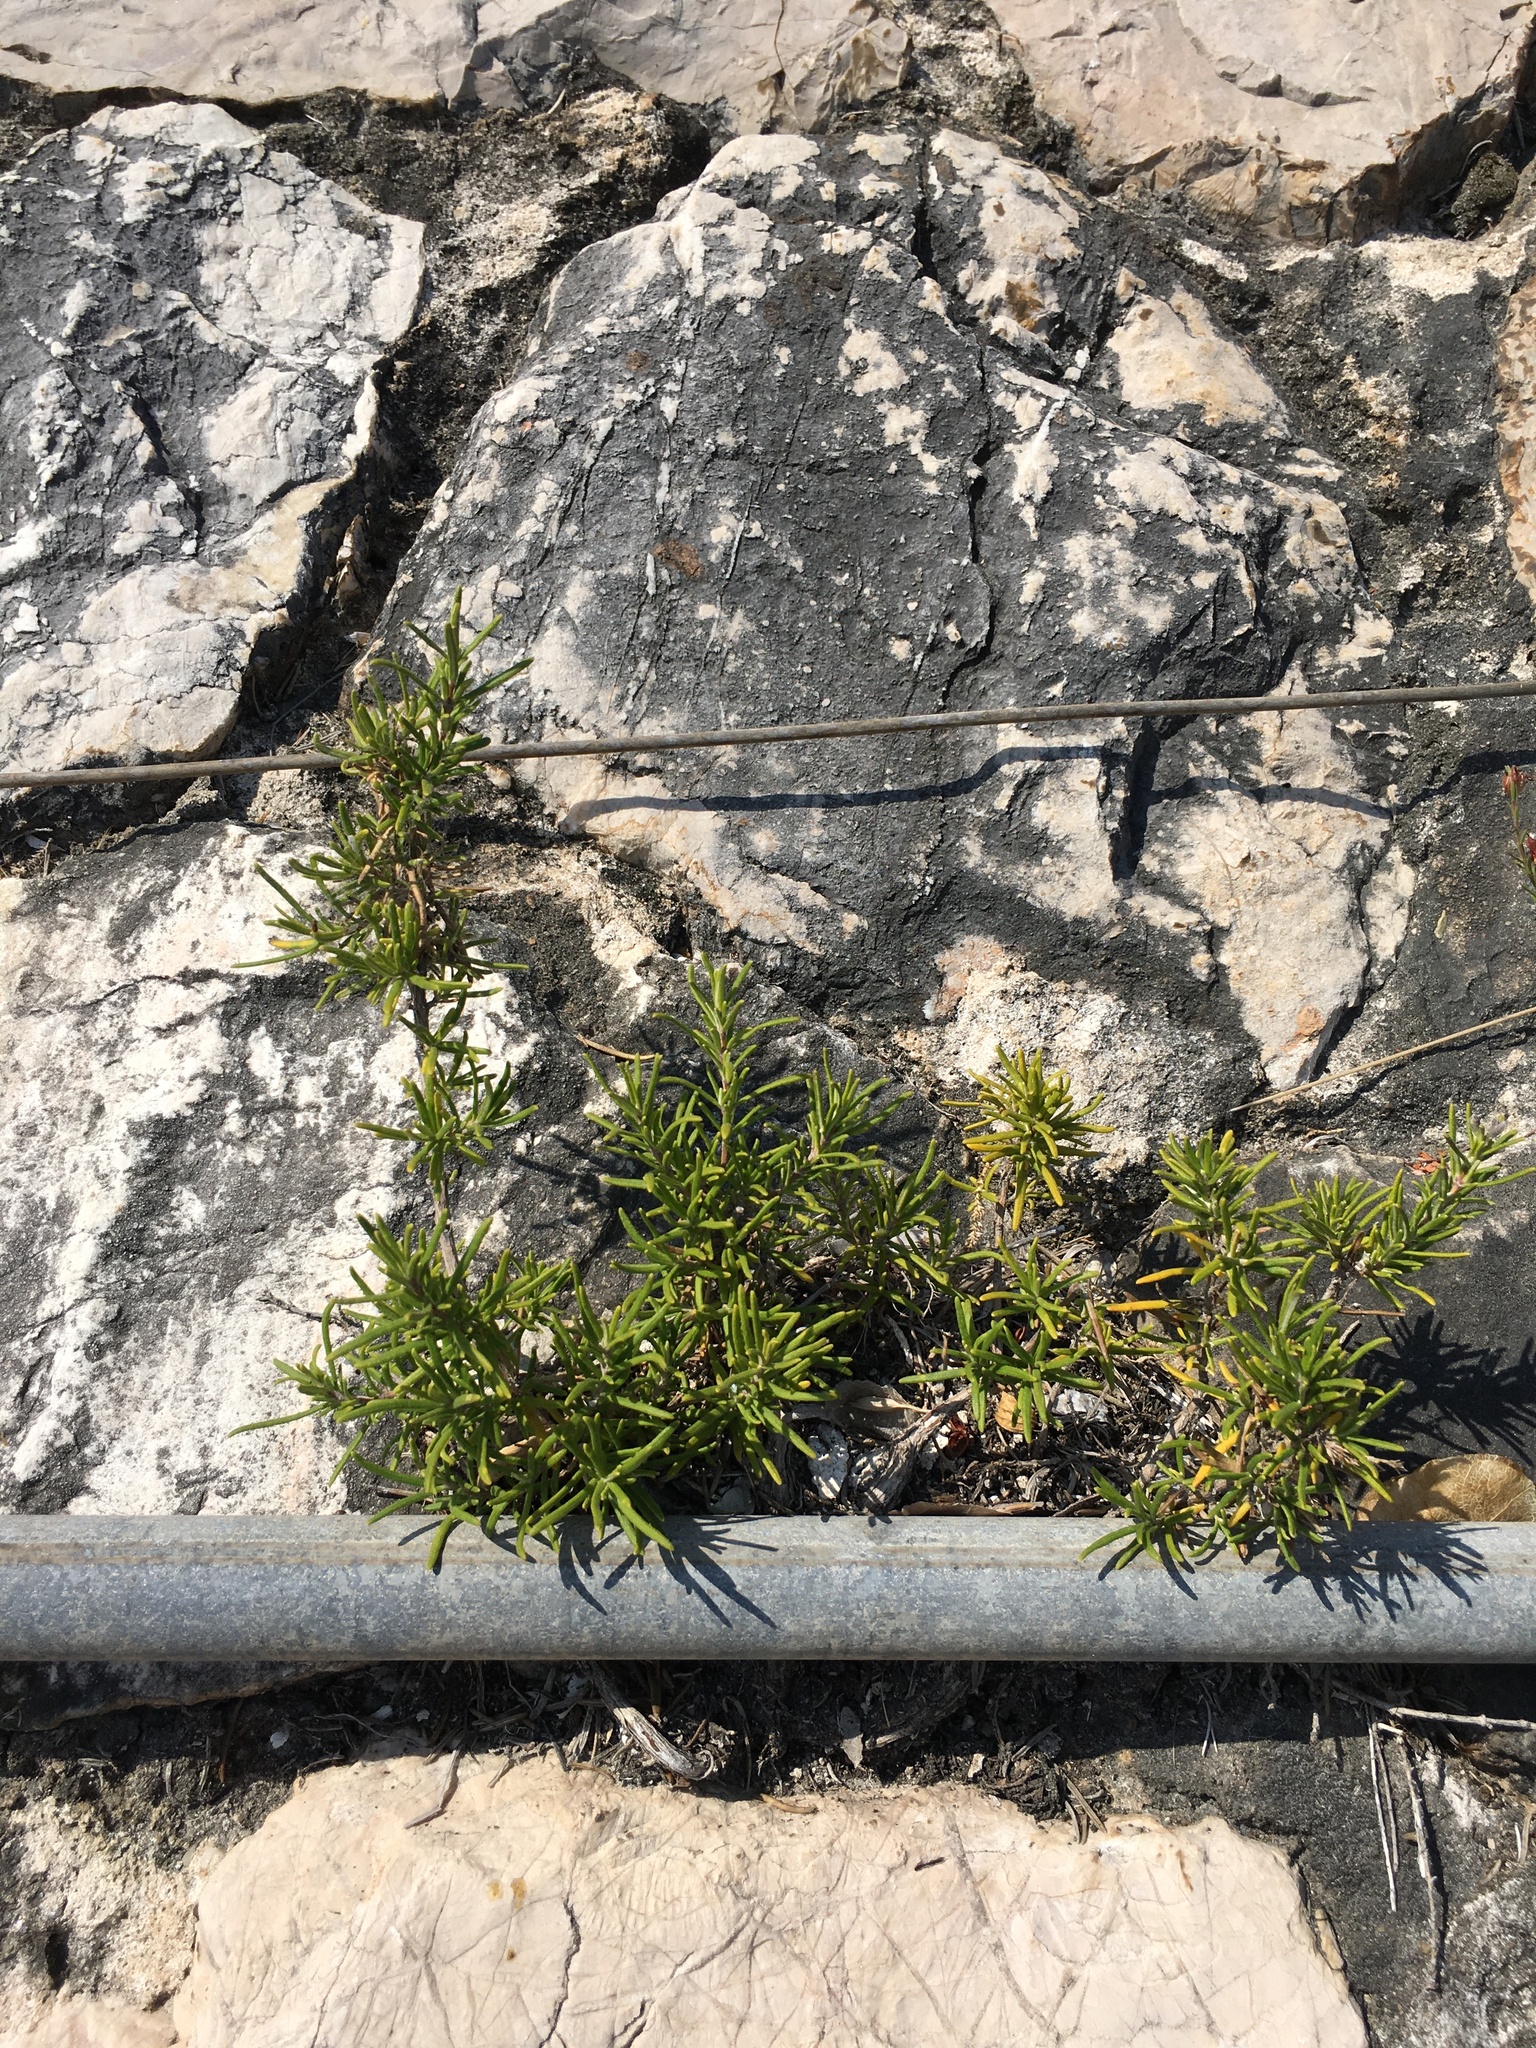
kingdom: Plantae
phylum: Tracheophyta
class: Magnoliopsida
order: Lamiales
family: Lamiaceae
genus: Salvia
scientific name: Salvia rosmarinus
